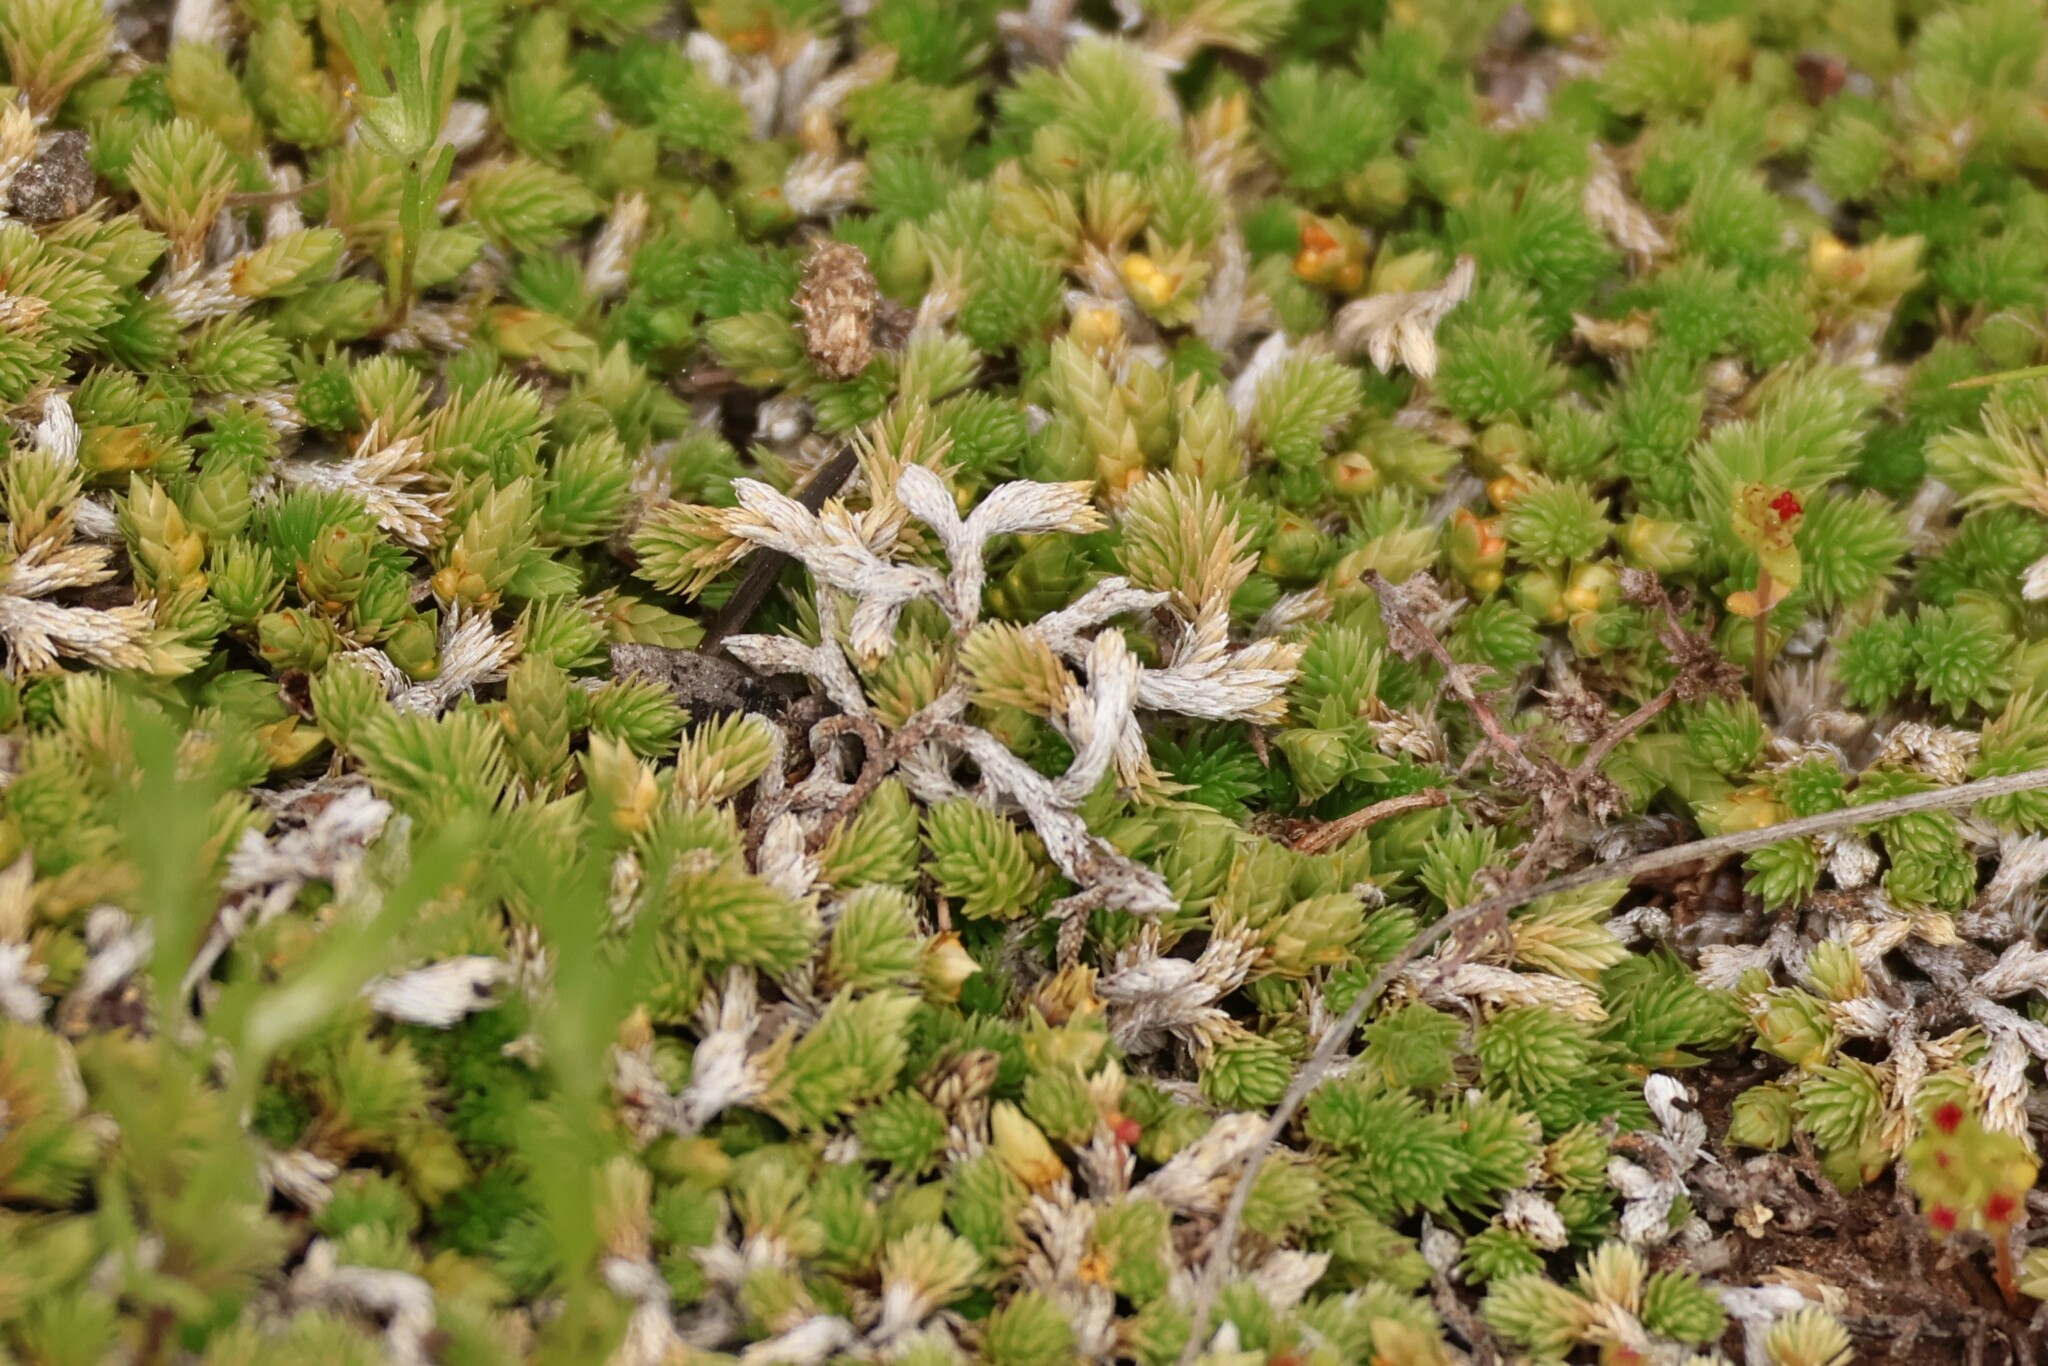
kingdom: Plantae
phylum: Tracheophyta
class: Lycopodiopsida
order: Selaginellales
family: Selaginellaceae
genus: Selaginella
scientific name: Selaginella cinerascens
